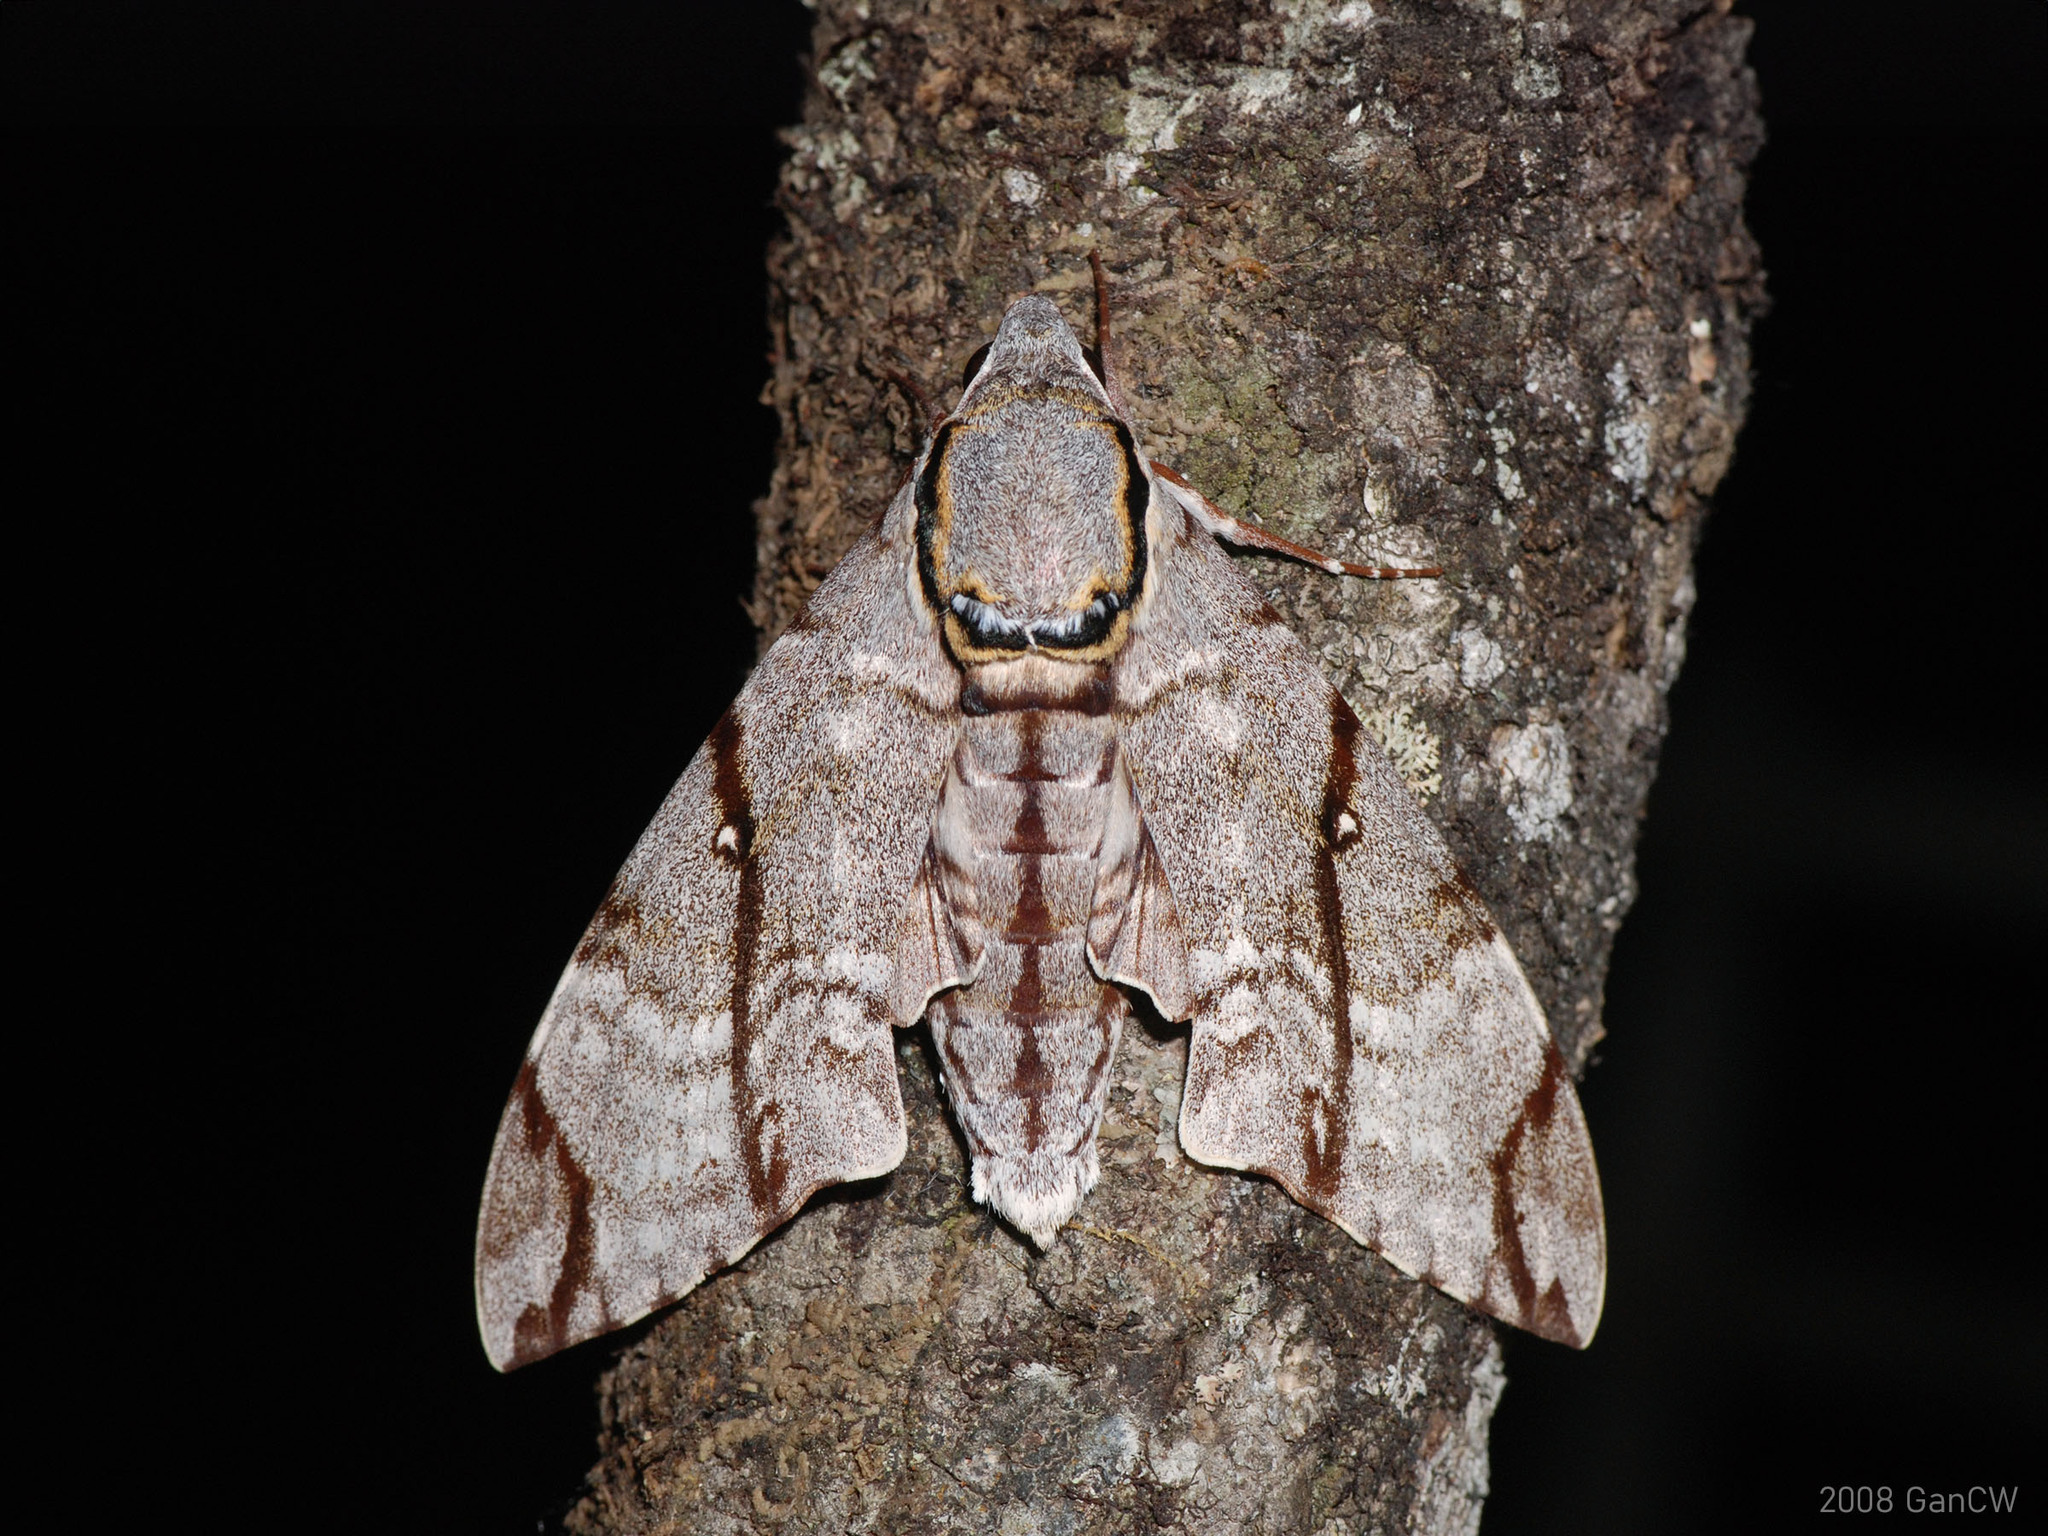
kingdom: Animalia
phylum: Arthropoda
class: Insecta
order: Lepidoptera
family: Sphingidae
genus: Notonagemia
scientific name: Notonagemia analis
